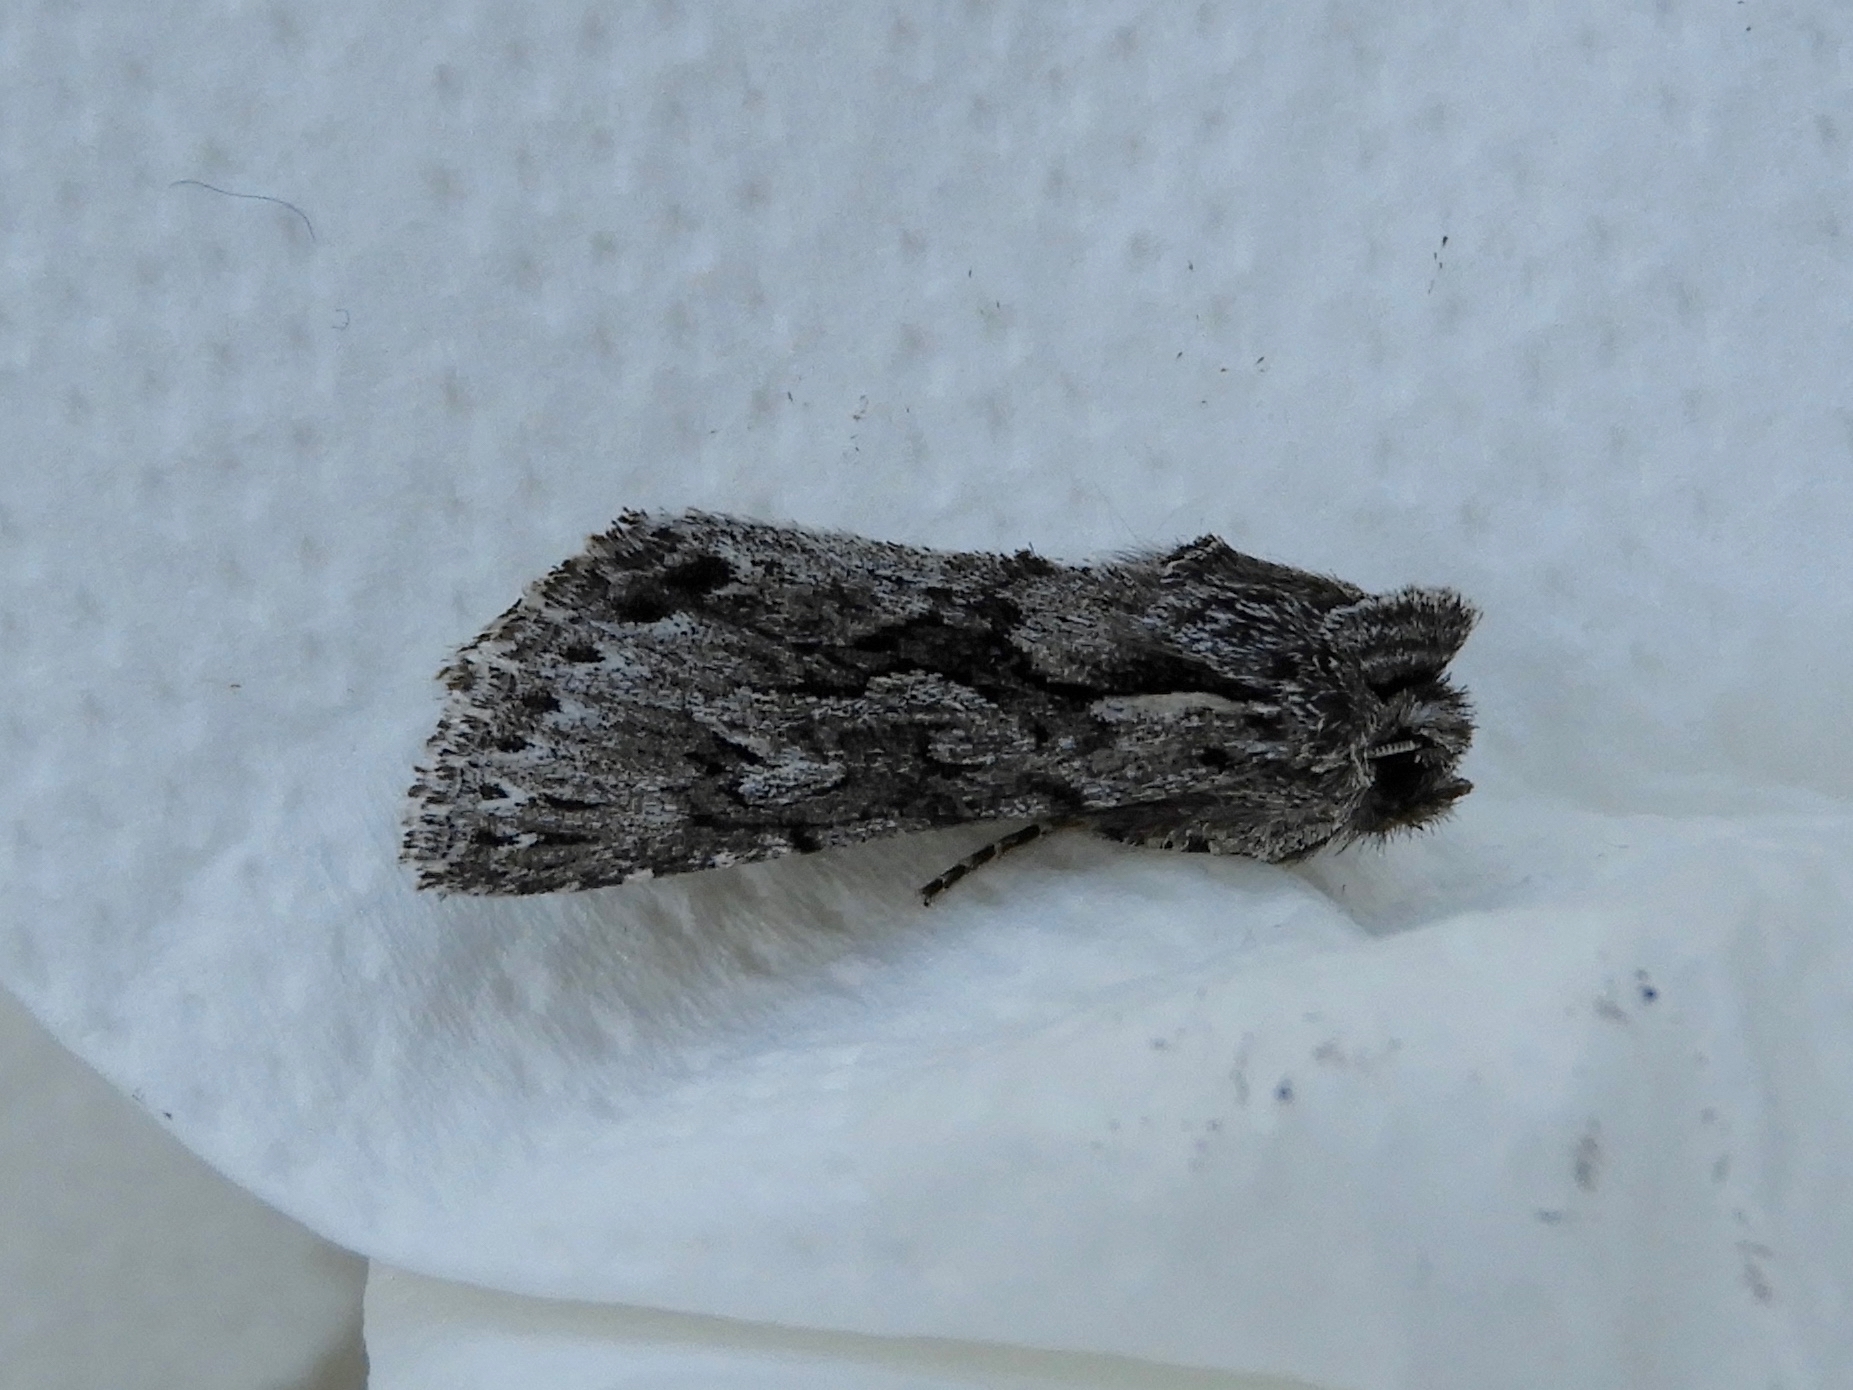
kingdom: Animalia
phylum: Arthropoda
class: Insecta
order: Lepidoptera
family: Noctuidae
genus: Xylocampa
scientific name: Xylocampa areola
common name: Early grey
